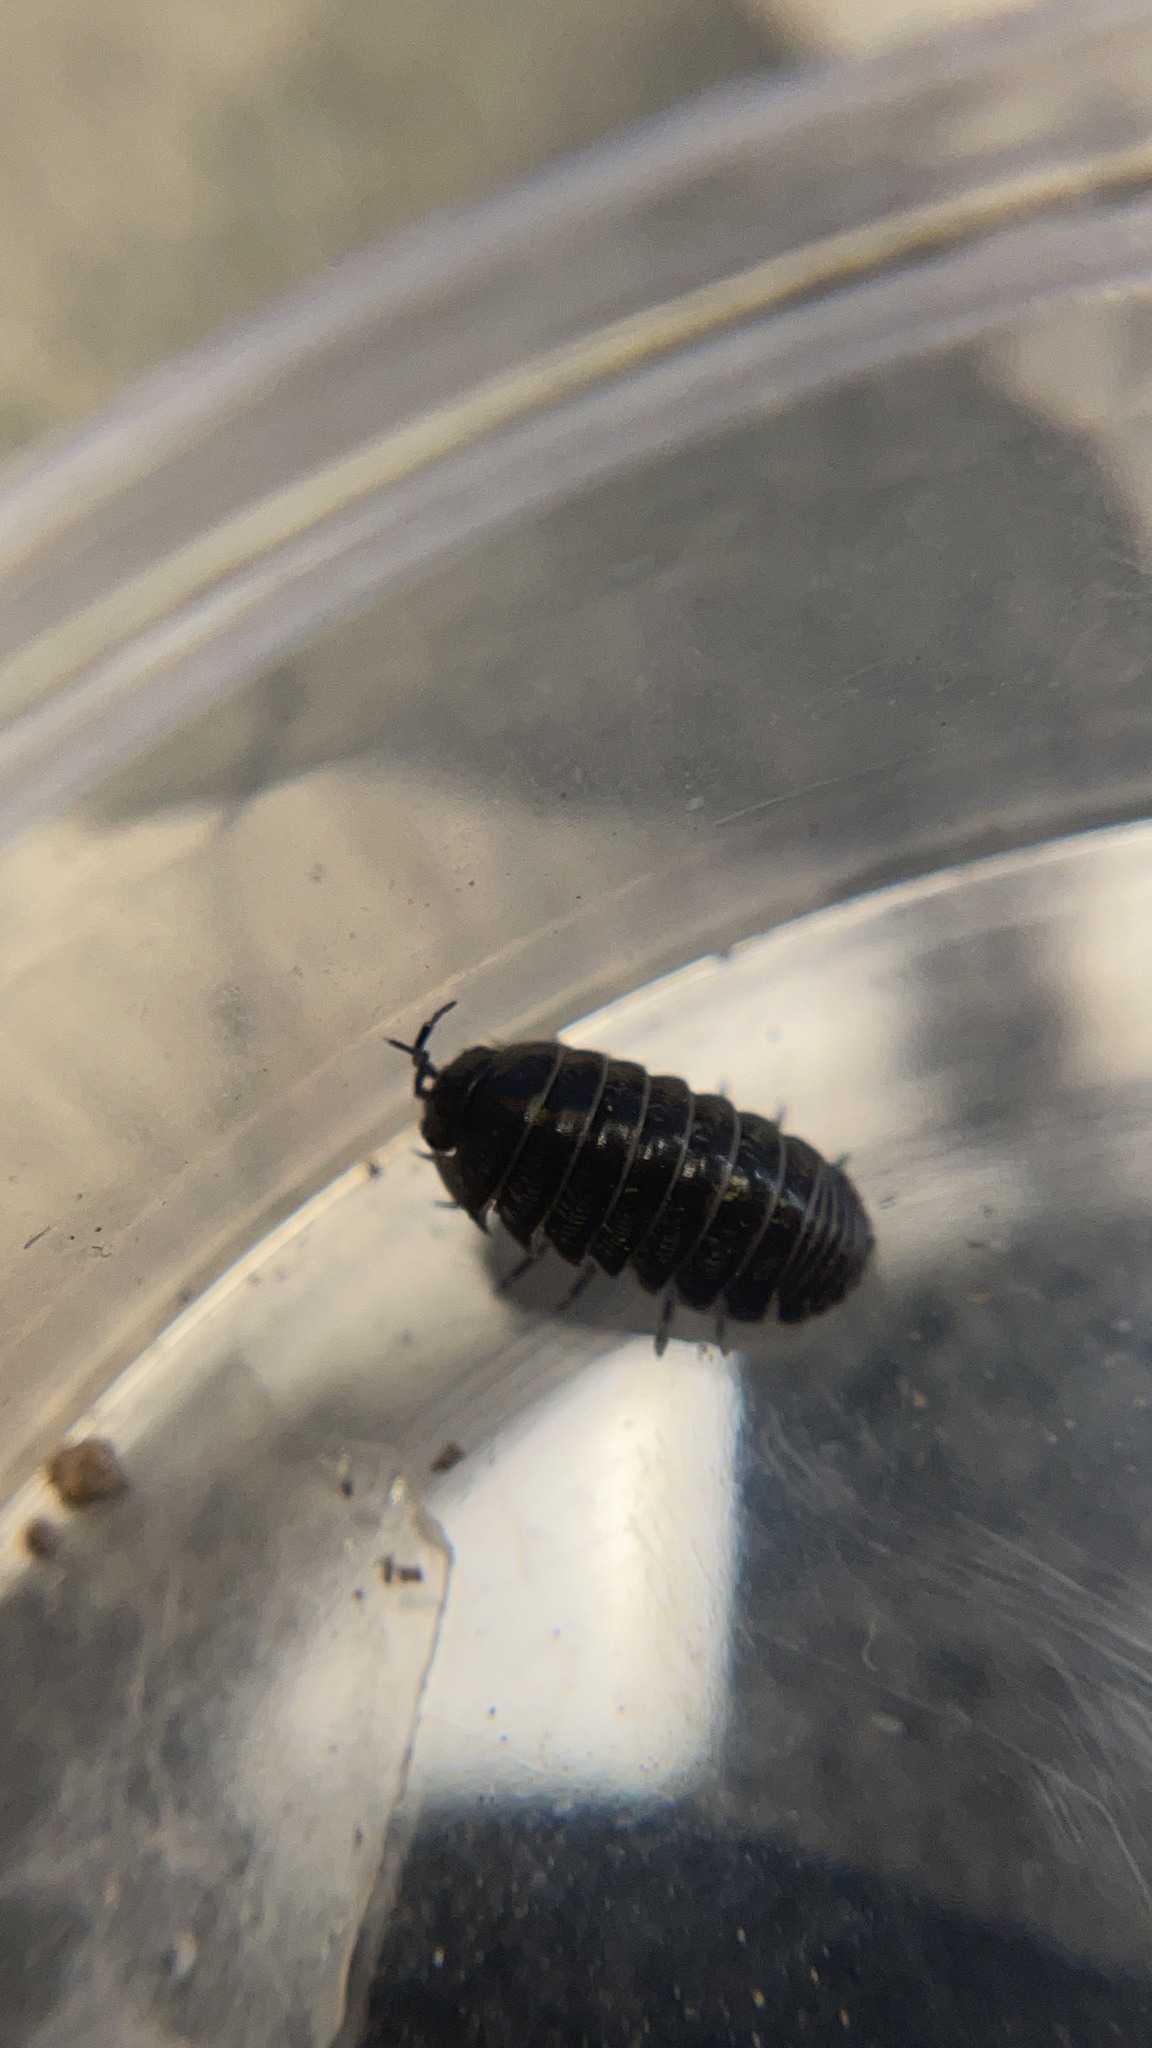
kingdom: Animalia
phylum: Arthropoda
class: Malacostraca
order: Isopoda
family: Armadillidiidae
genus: Armadillidium
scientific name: Armadillidium vulgare
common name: Common pill woodlouse
